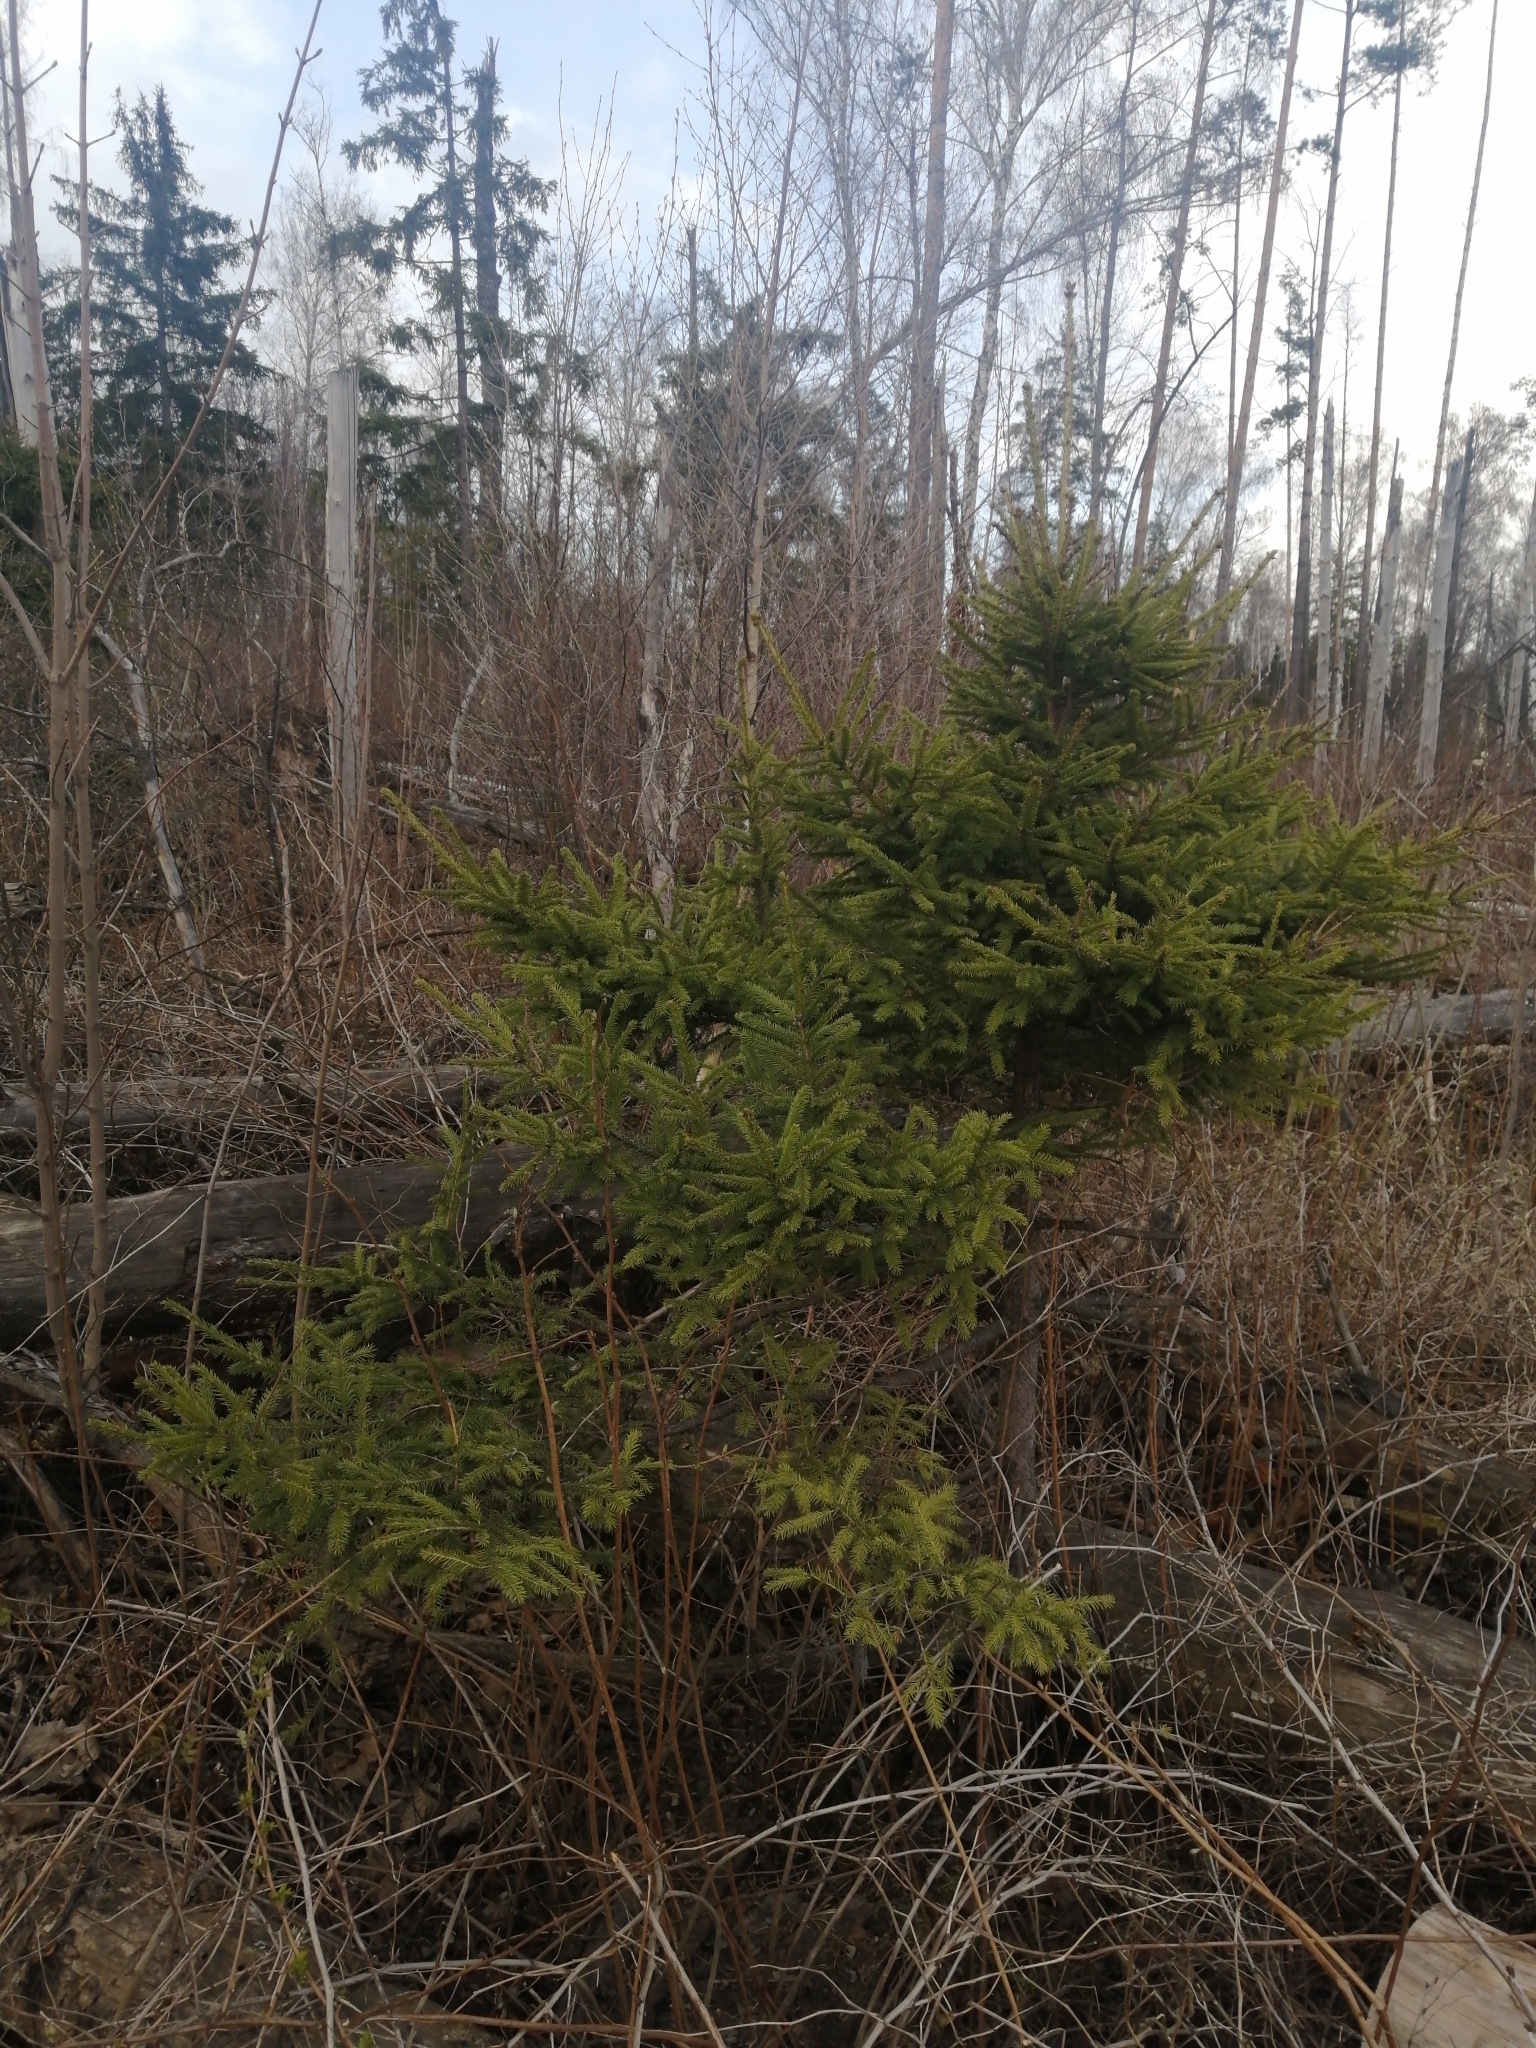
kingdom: Plantae
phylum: Tracheophyta
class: Pinopsida
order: Pinales
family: Pinaceae
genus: Picea
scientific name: Picea abies
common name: Norway spruce
